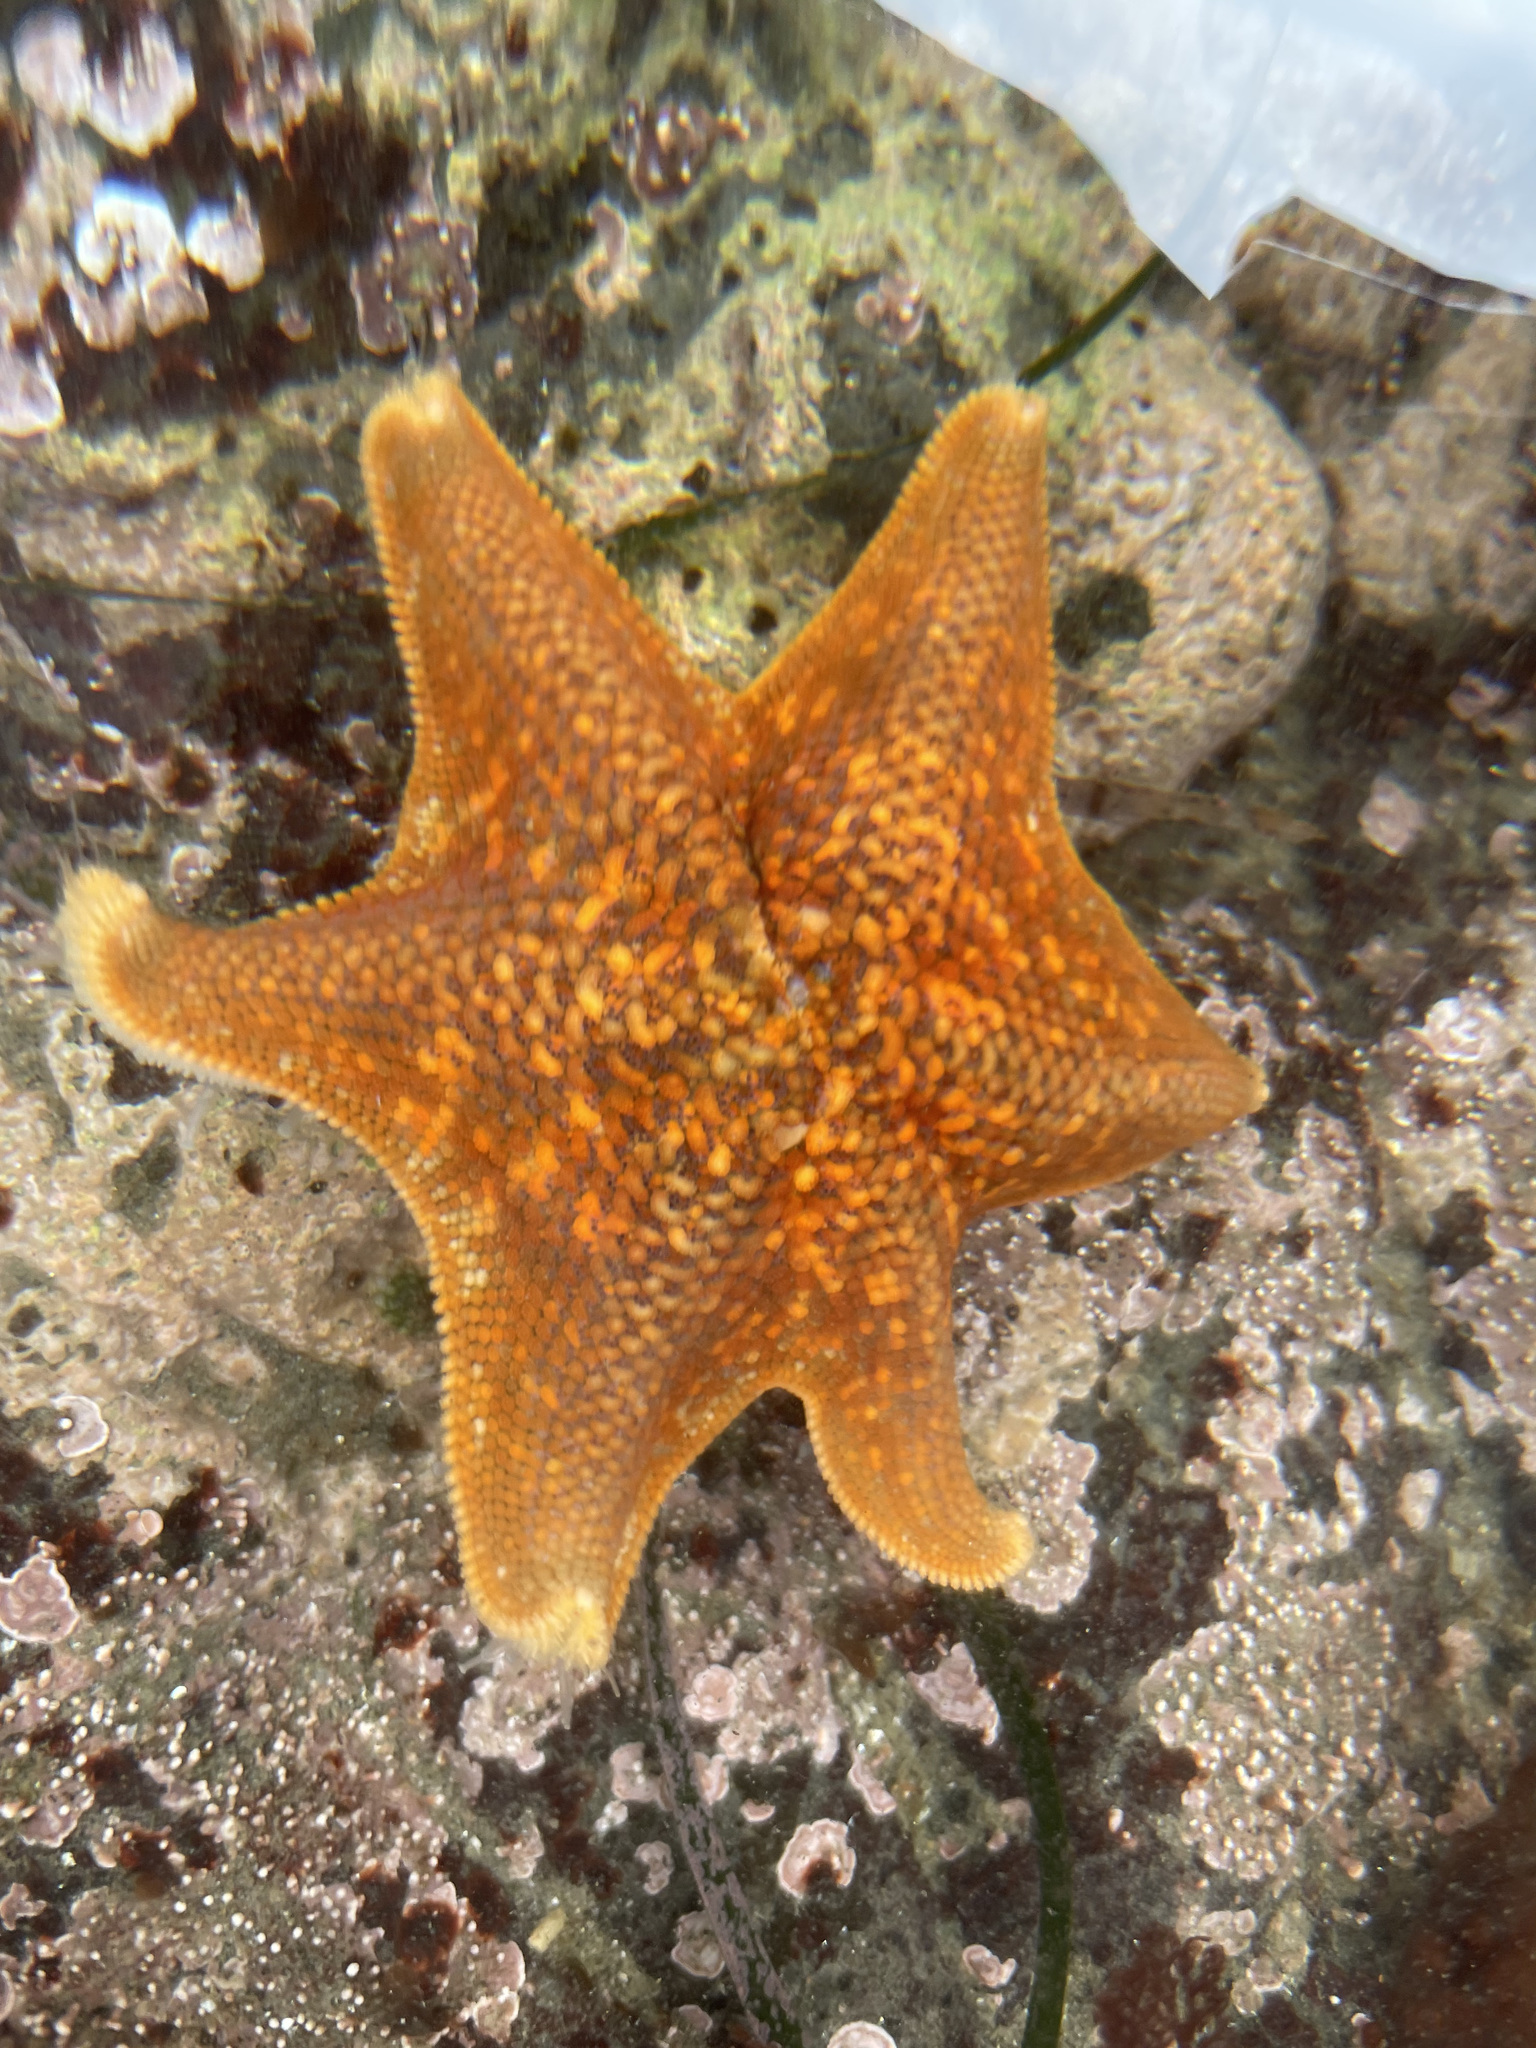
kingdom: Animalia
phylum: Echinodermata
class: Asteroidea
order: Valvatida
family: Asterinidae
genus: Patiria
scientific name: Patiria miniata
